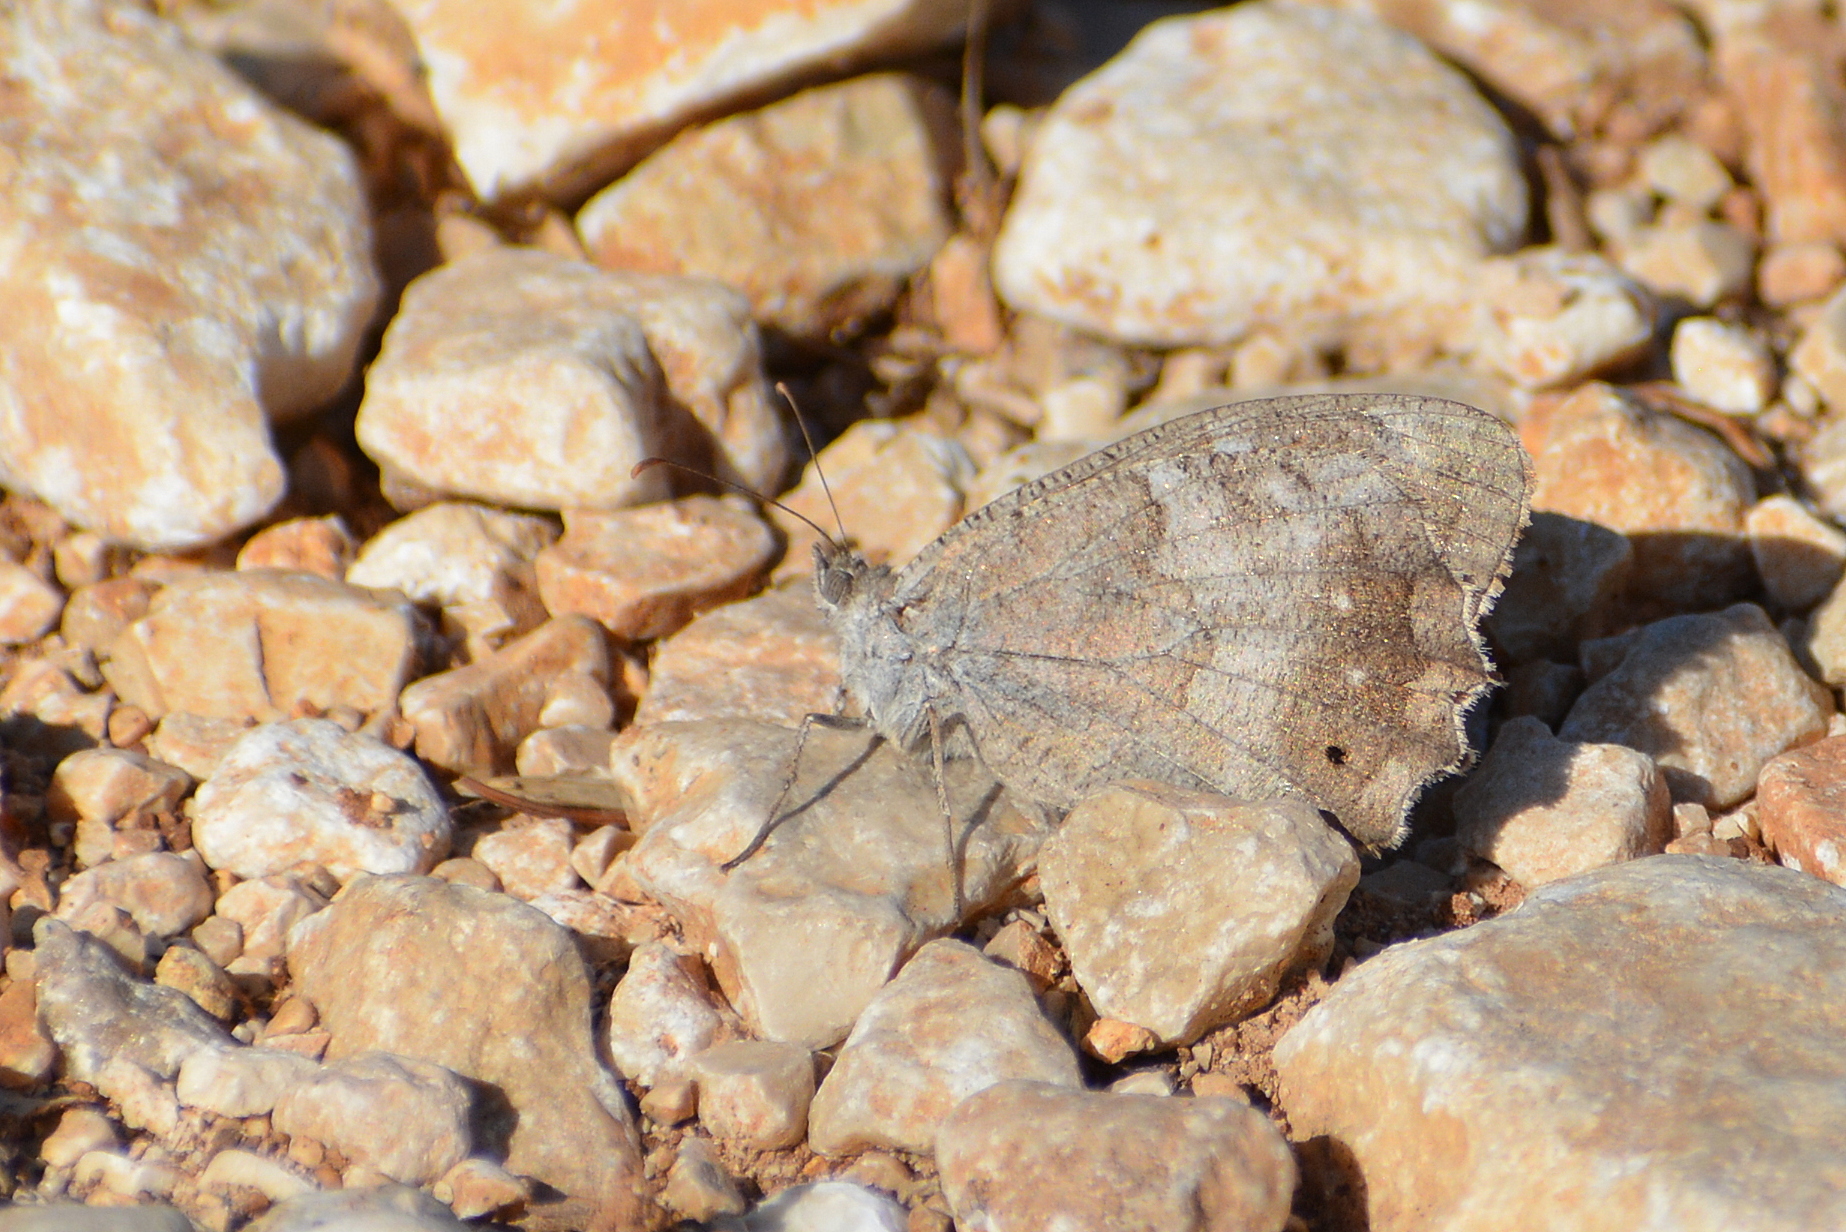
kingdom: Animalia
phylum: Arthropoda
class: Insecta
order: Lepidoptera
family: Nymphalidae
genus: Hipparchia
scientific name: Hipparchia statilinus
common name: Tree grayling
